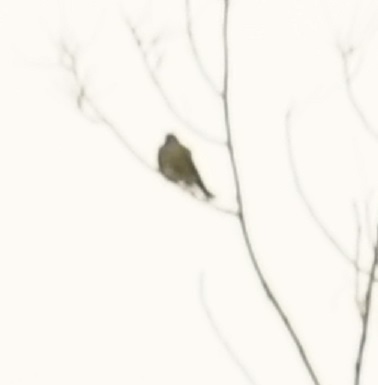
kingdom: Animalia
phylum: Chordata
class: Aves
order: Passeriformes
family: Oriolidae
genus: Sphecotheres
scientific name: Sphecotheres vieilloti
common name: Australasian figbird
